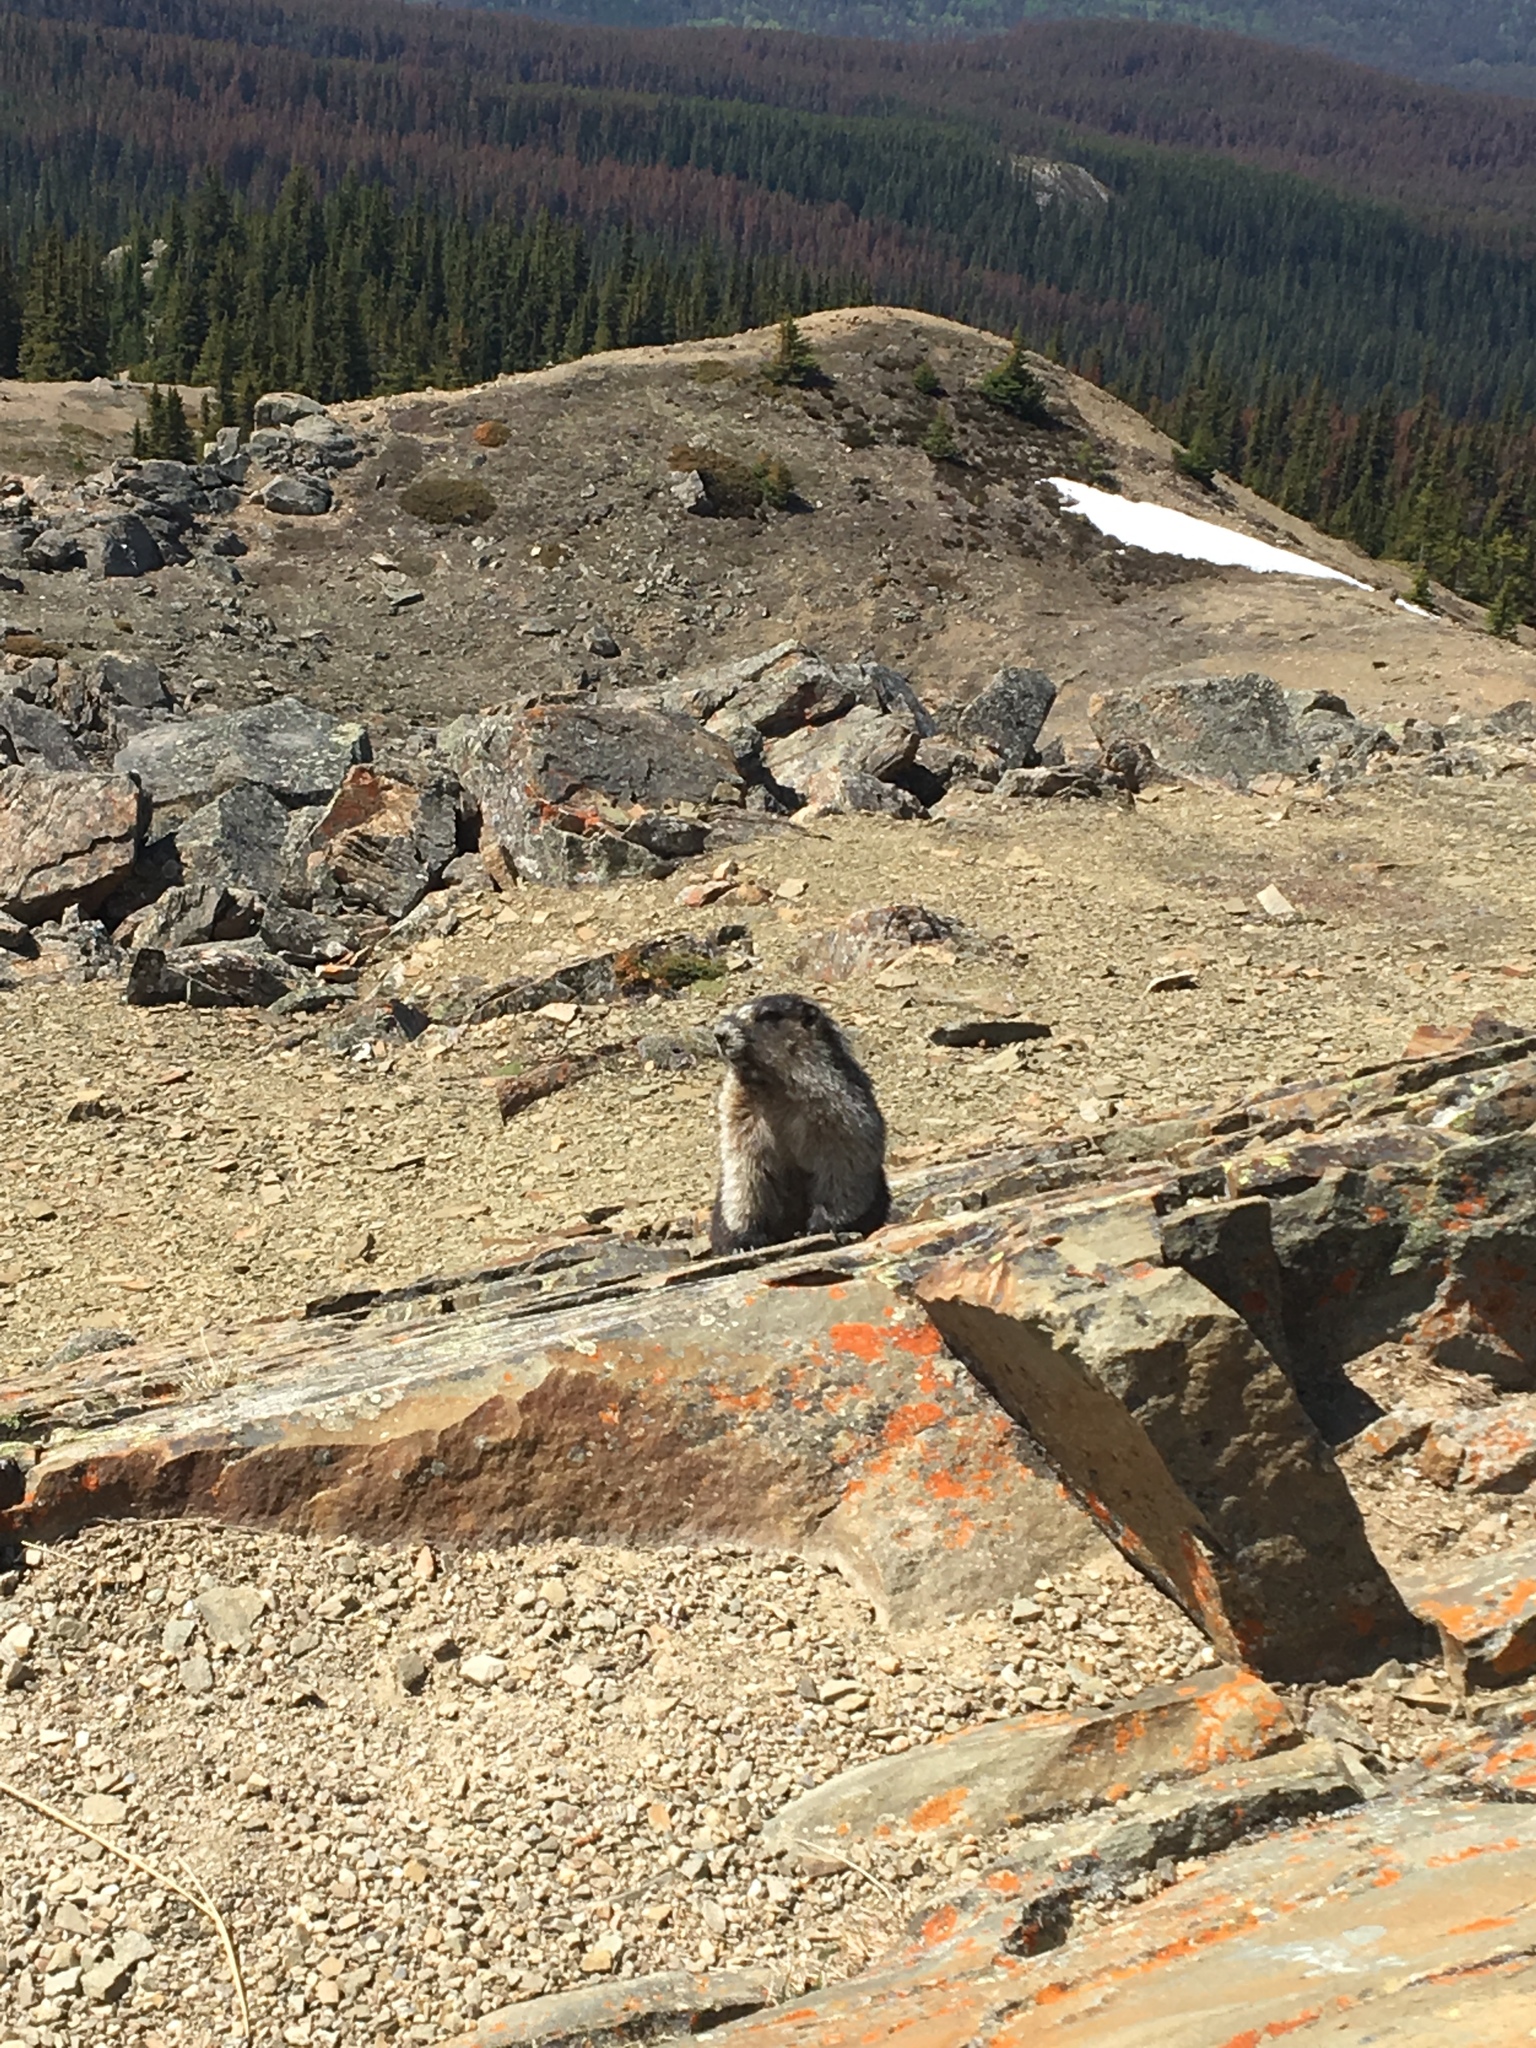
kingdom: Animalia
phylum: Chordata
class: Mammalia
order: Rodentia
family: Sciuridae
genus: Marmota
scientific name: Marmota caligata
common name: Hoary marmot
